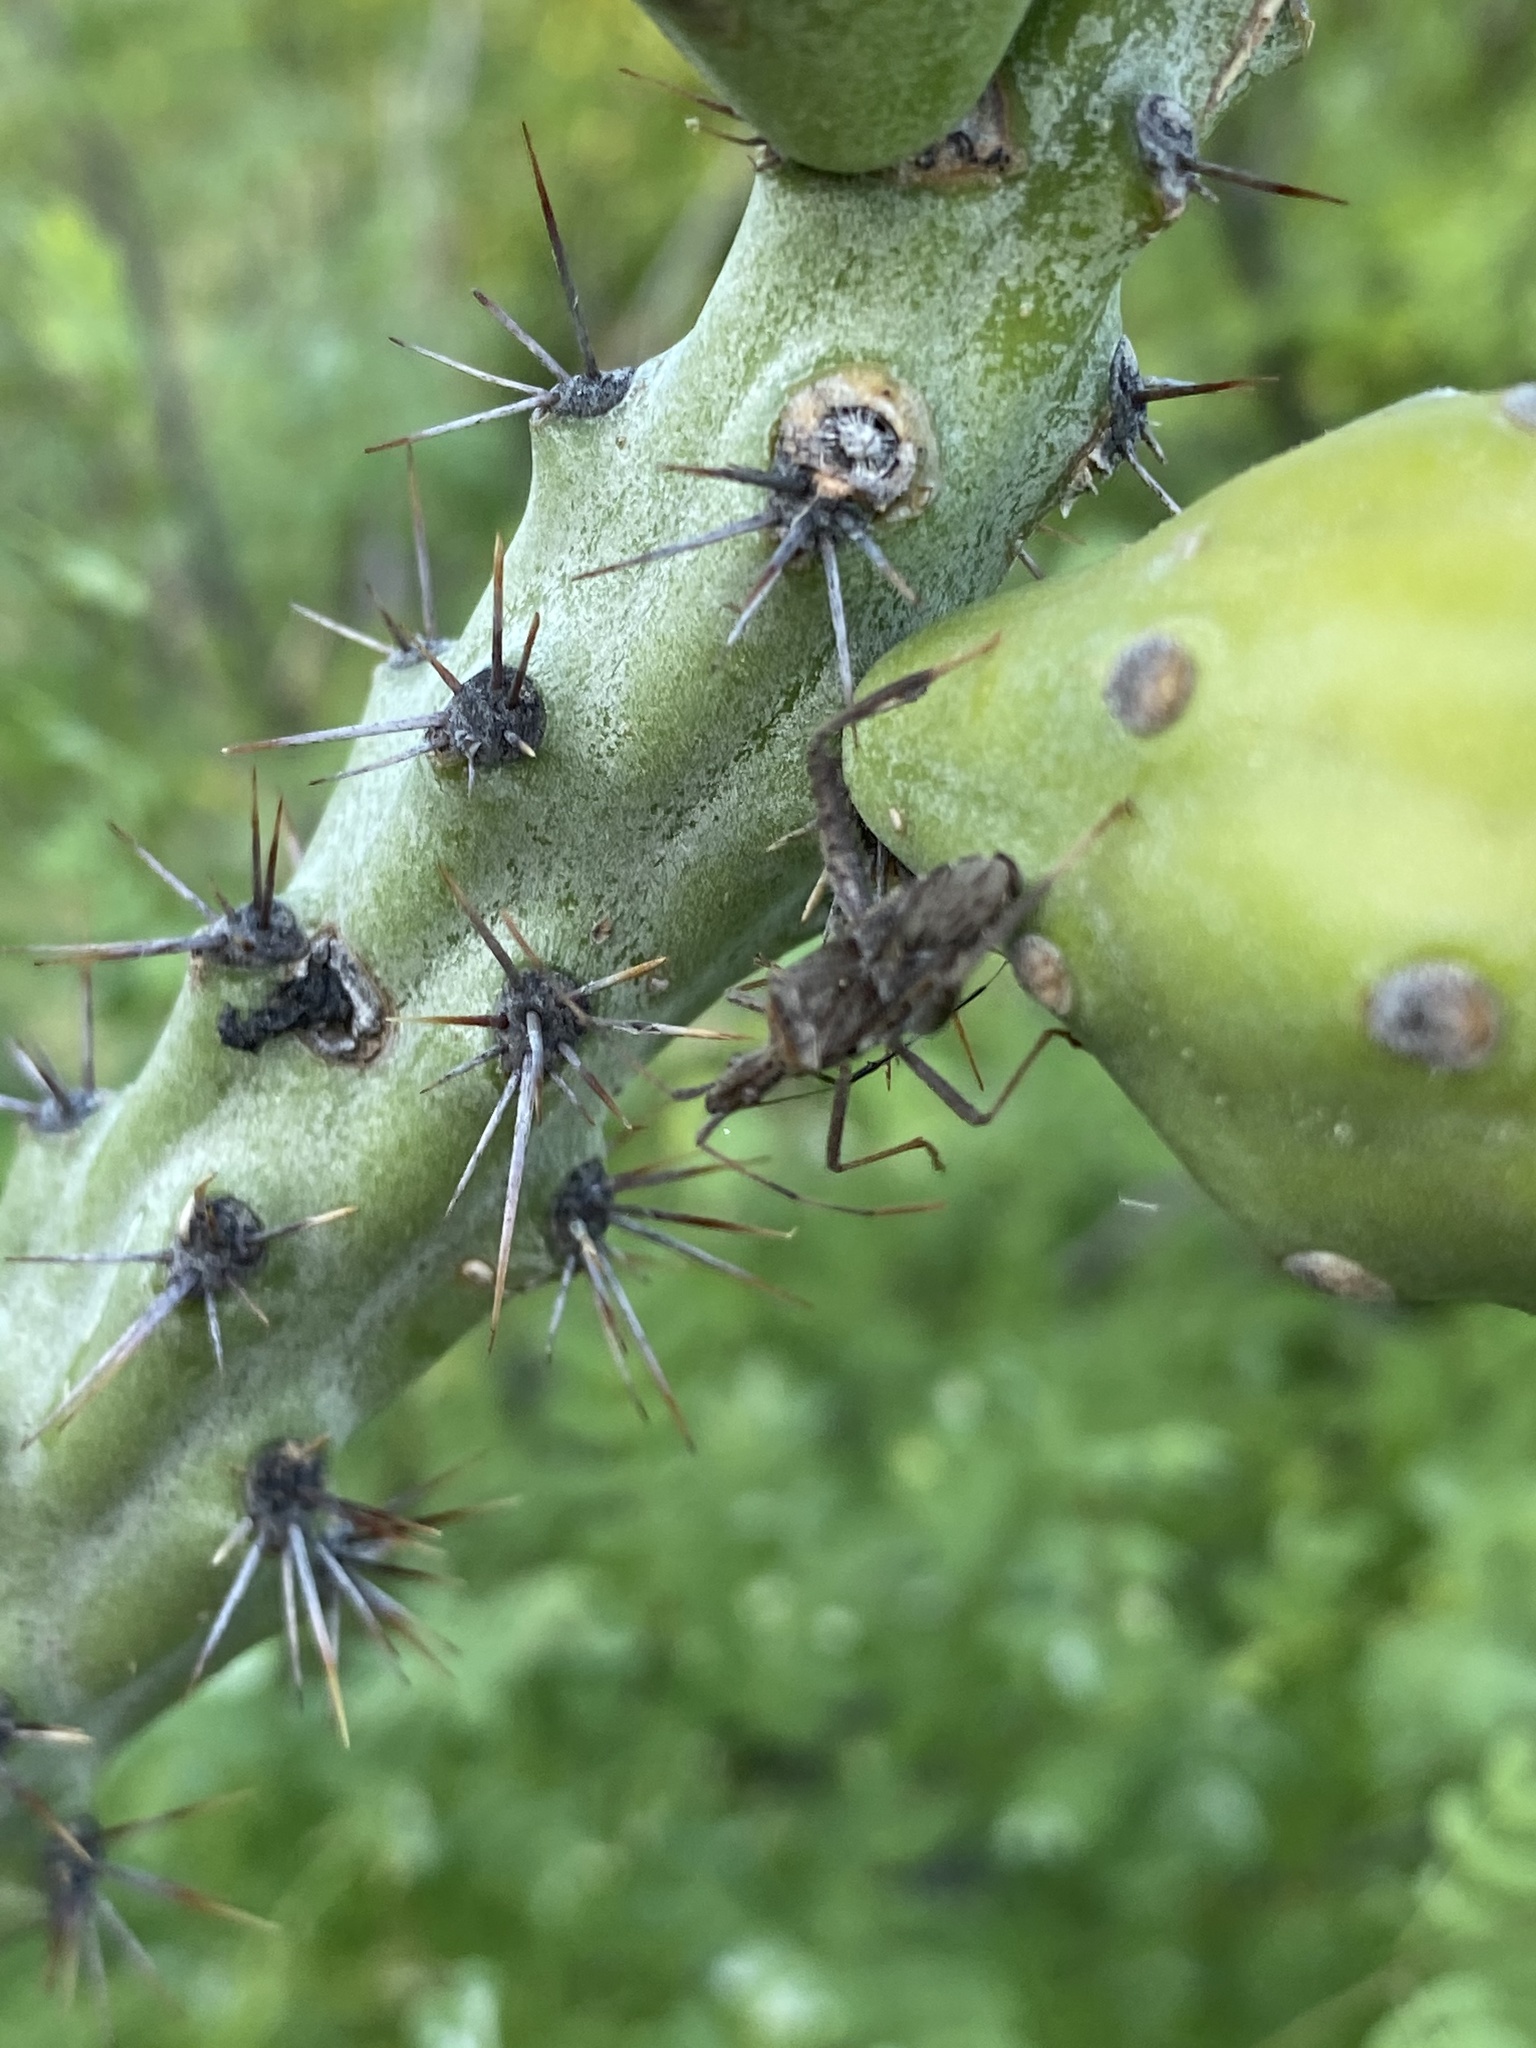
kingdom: Plantae
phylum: Tracheophyta
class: Magnoliopsida
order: Caryophyllales
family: Cactaceae
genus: Cylindropuntia
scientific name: Cylindropuntia thurberi
